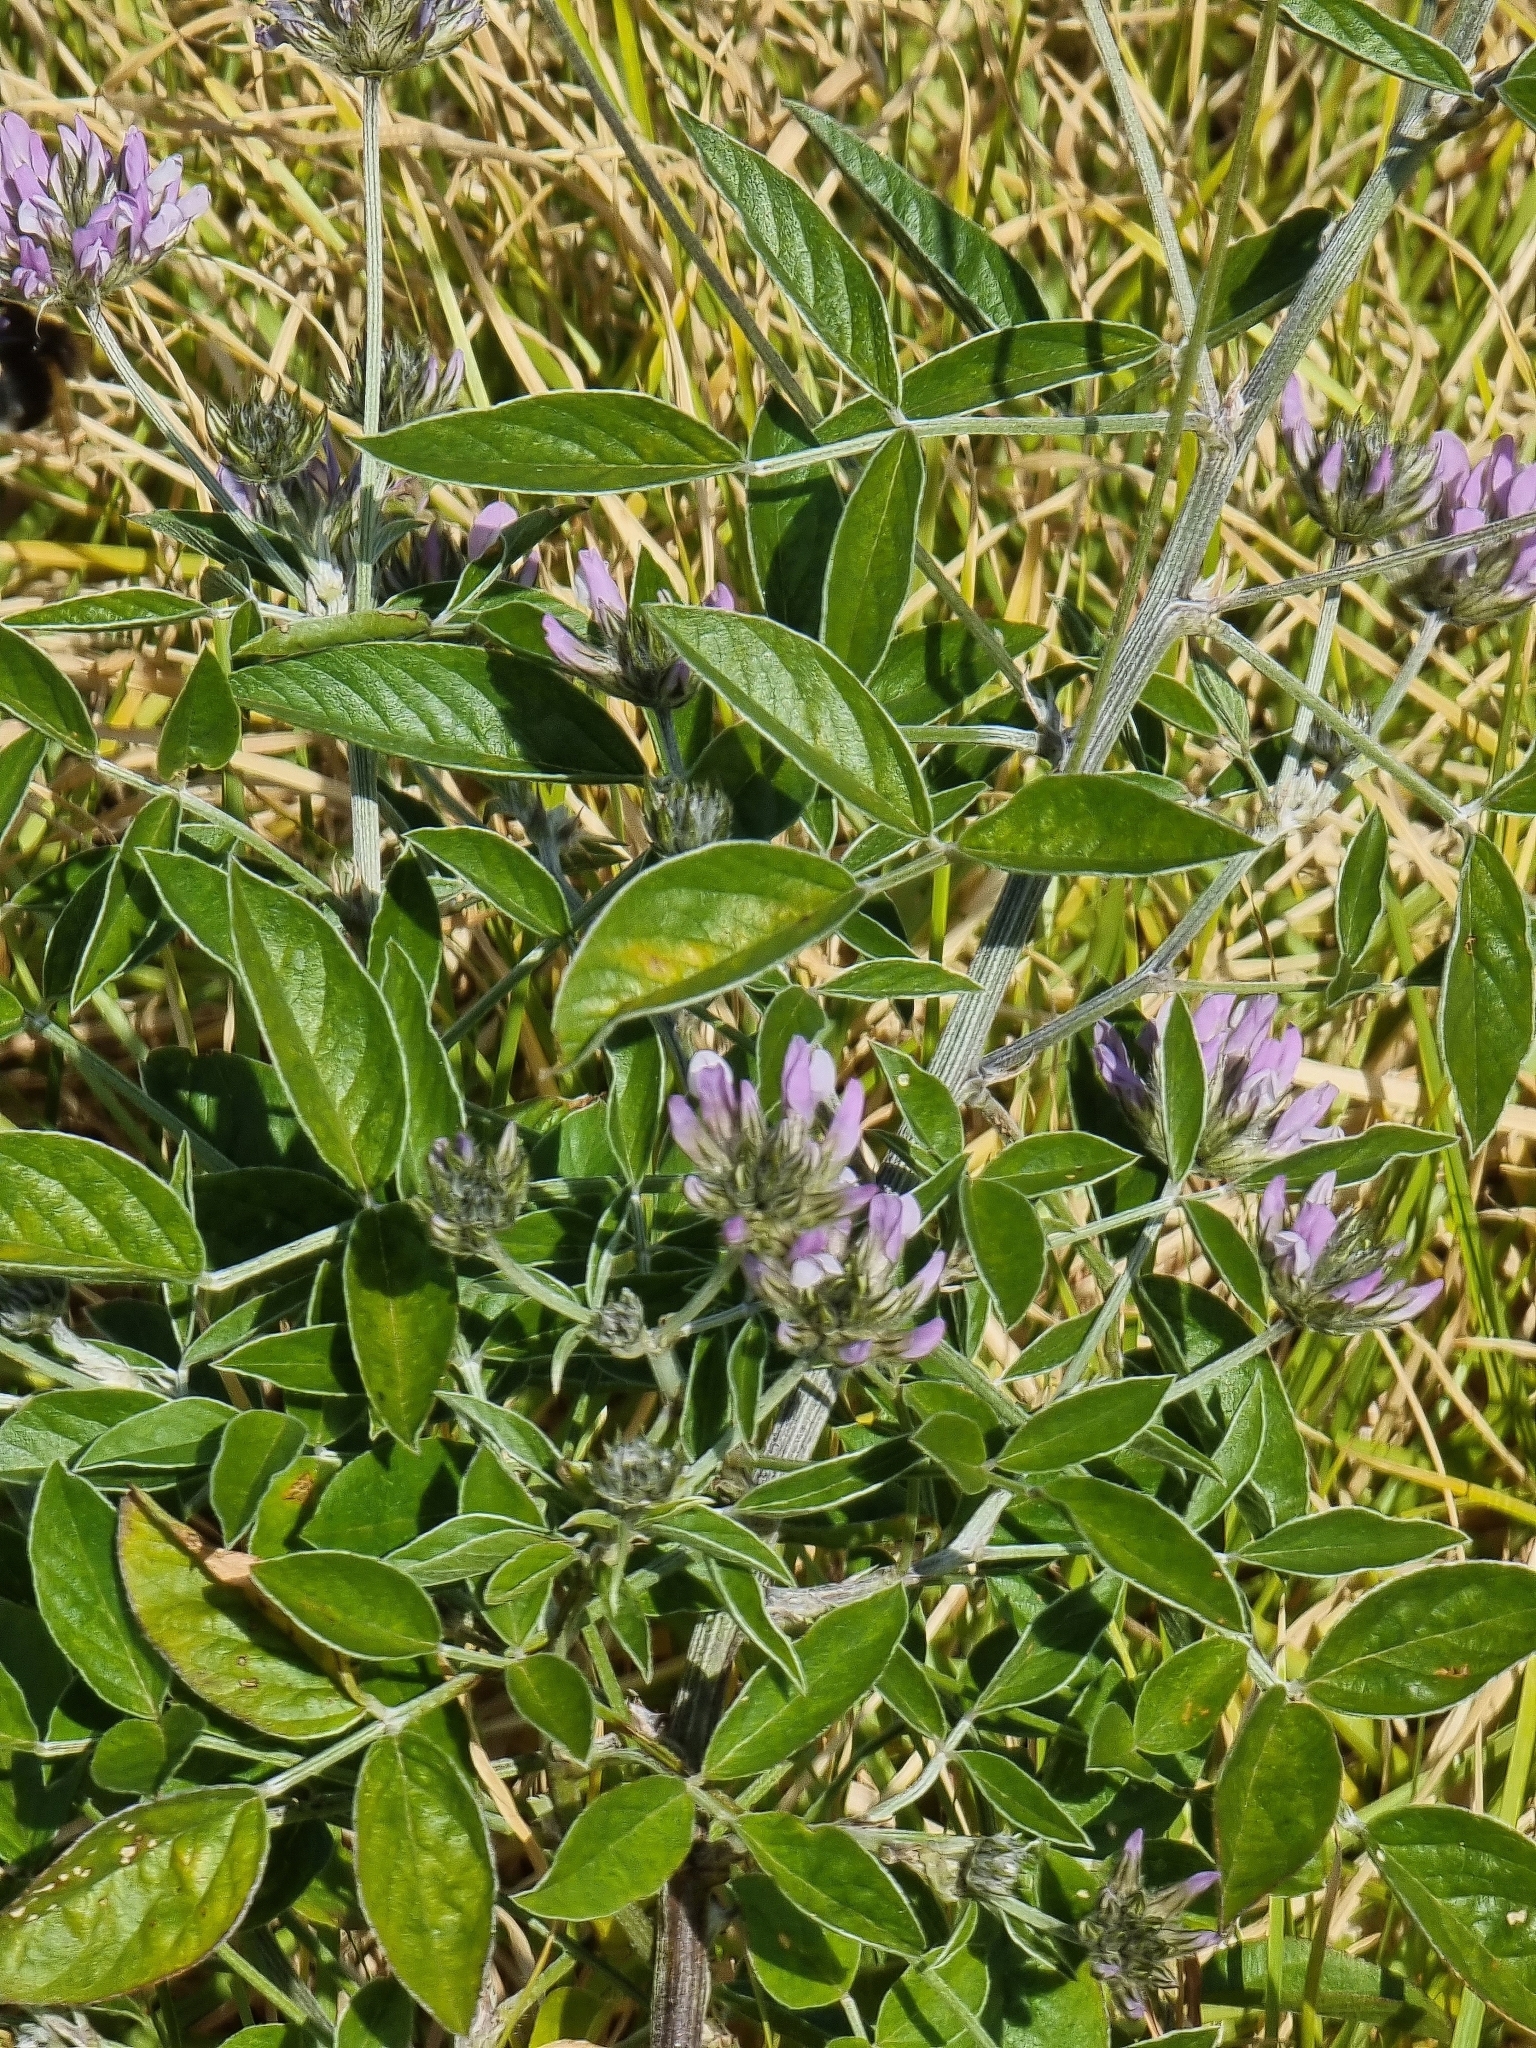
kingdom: Plantae
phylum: Tracheophyta
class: Magnoliopsida
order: Fabales
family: Fabaceae
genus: Bituminaria
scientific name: Bituminaria bituminosa
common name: Arabian pea
